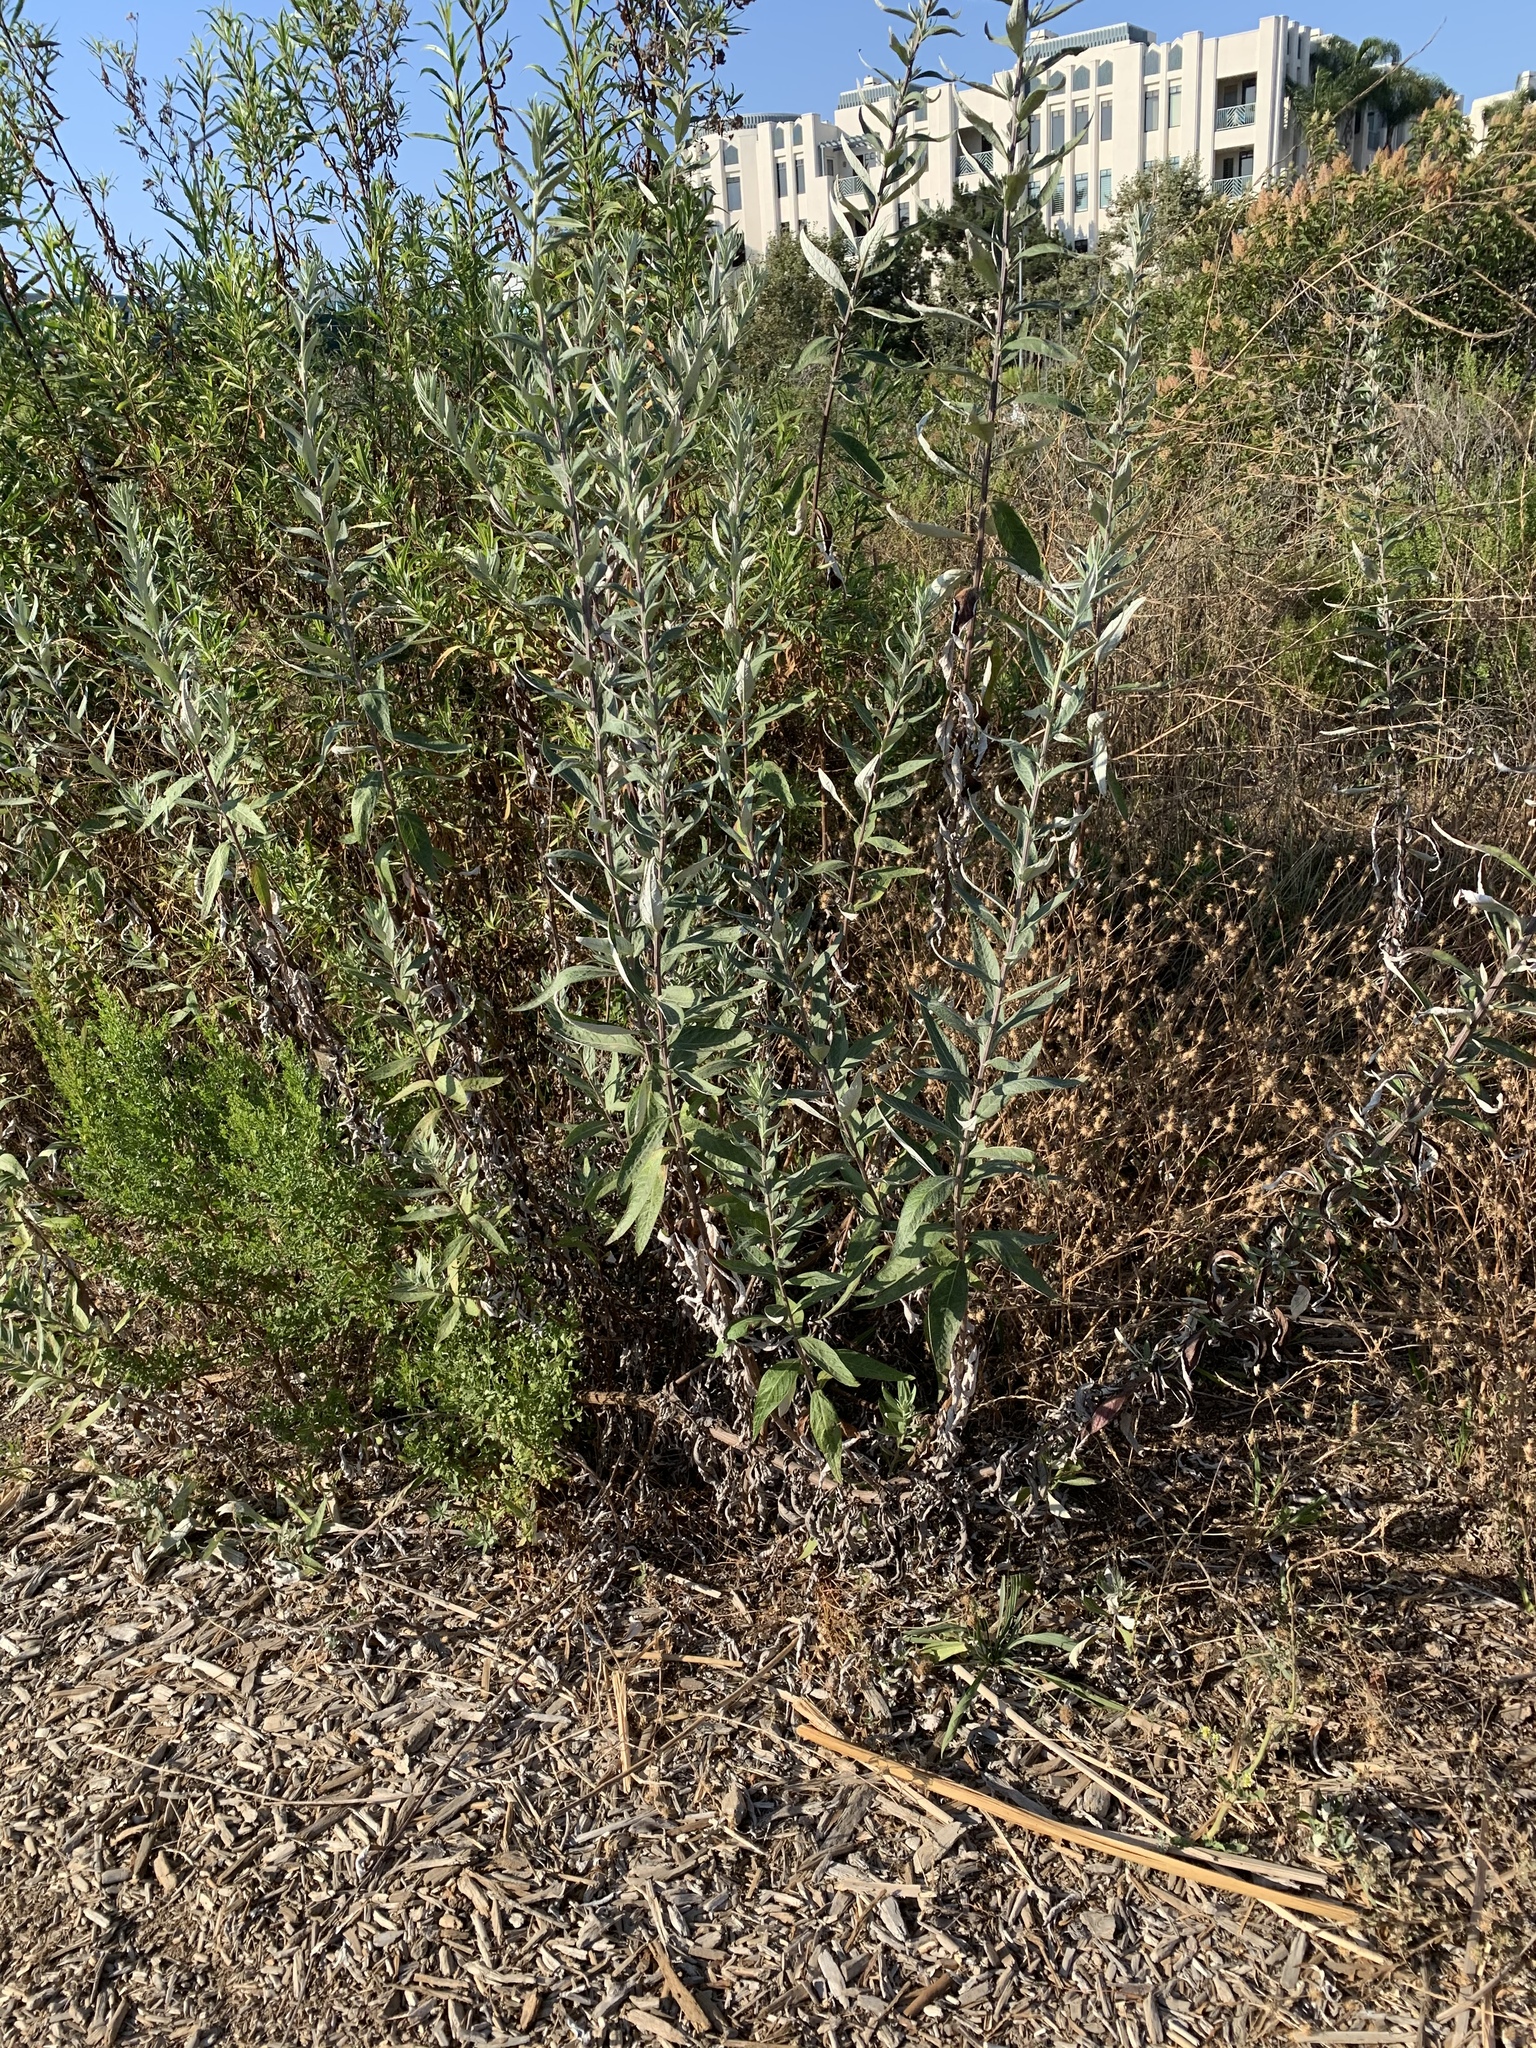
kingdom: Plantae
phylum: Tracheophyta
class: Magnoliopsida
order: Asterales
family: Asteraceae
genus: Artemisia
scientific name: Artemisia douglasiana
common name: Northwest mugwort
